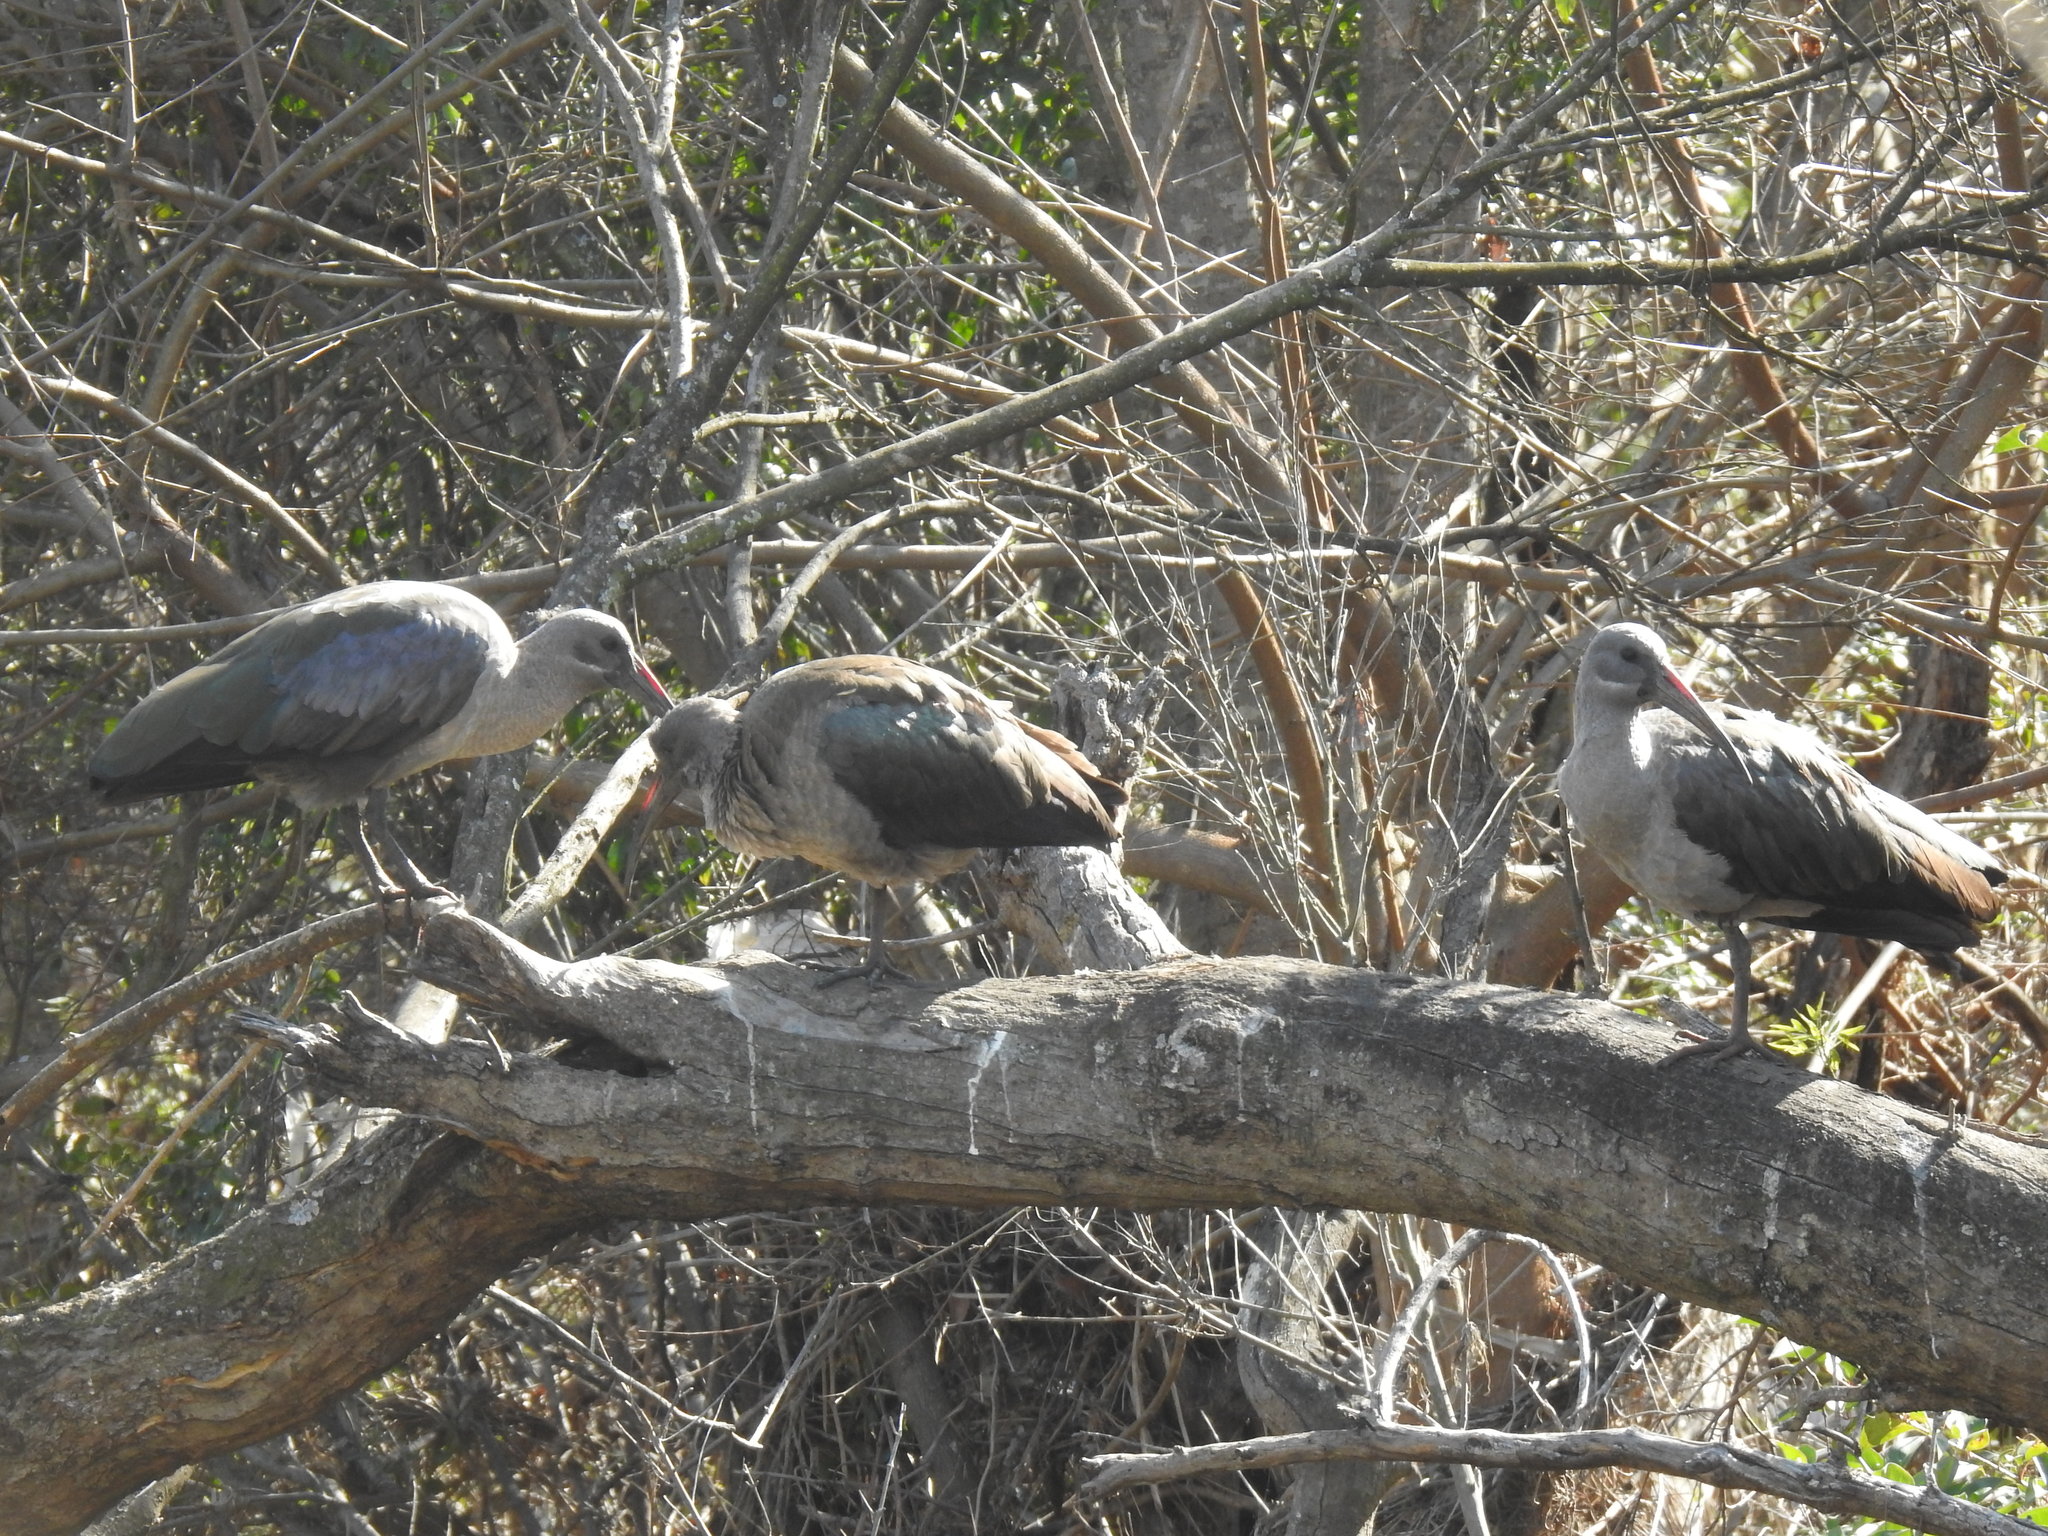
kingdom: Animalia
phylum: Chordata
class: Aves
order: Pelecaniformes
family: Threskiornithidae
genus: Bostrychia
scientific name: Bostrychia hagedash
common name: Hadada ibis
